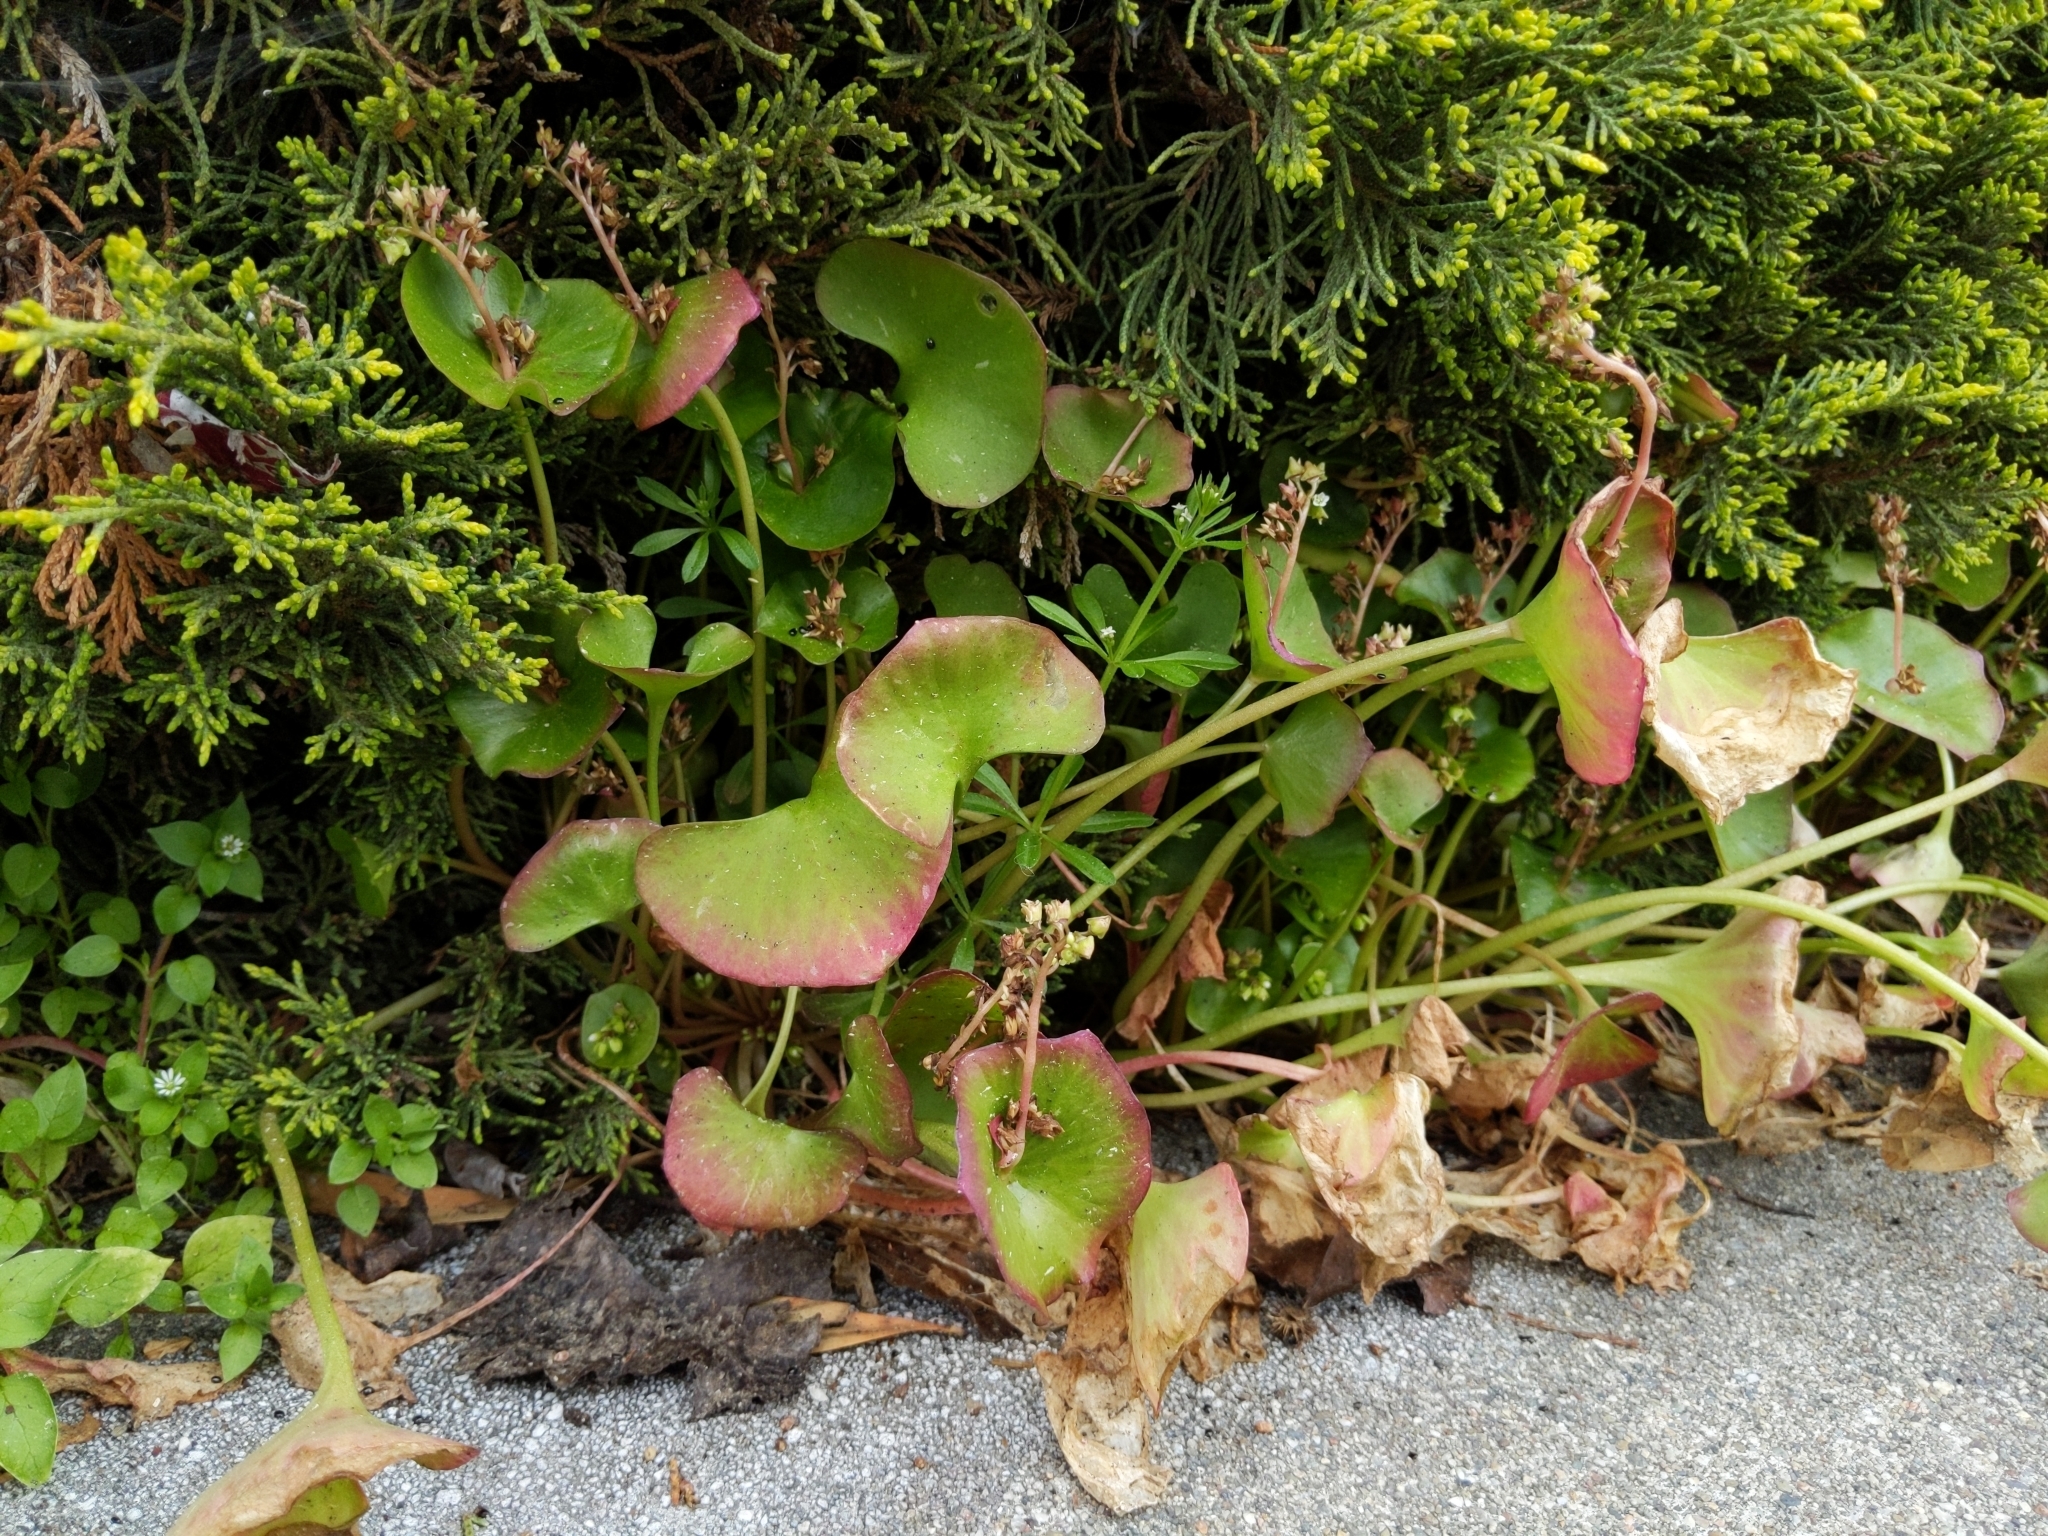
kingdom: Plantae
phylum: Tracheophyta
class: Magnoliopsida
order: Caryophyllales
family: Montiaceae
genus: Claytonia
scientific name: Claytonia perfoliata
